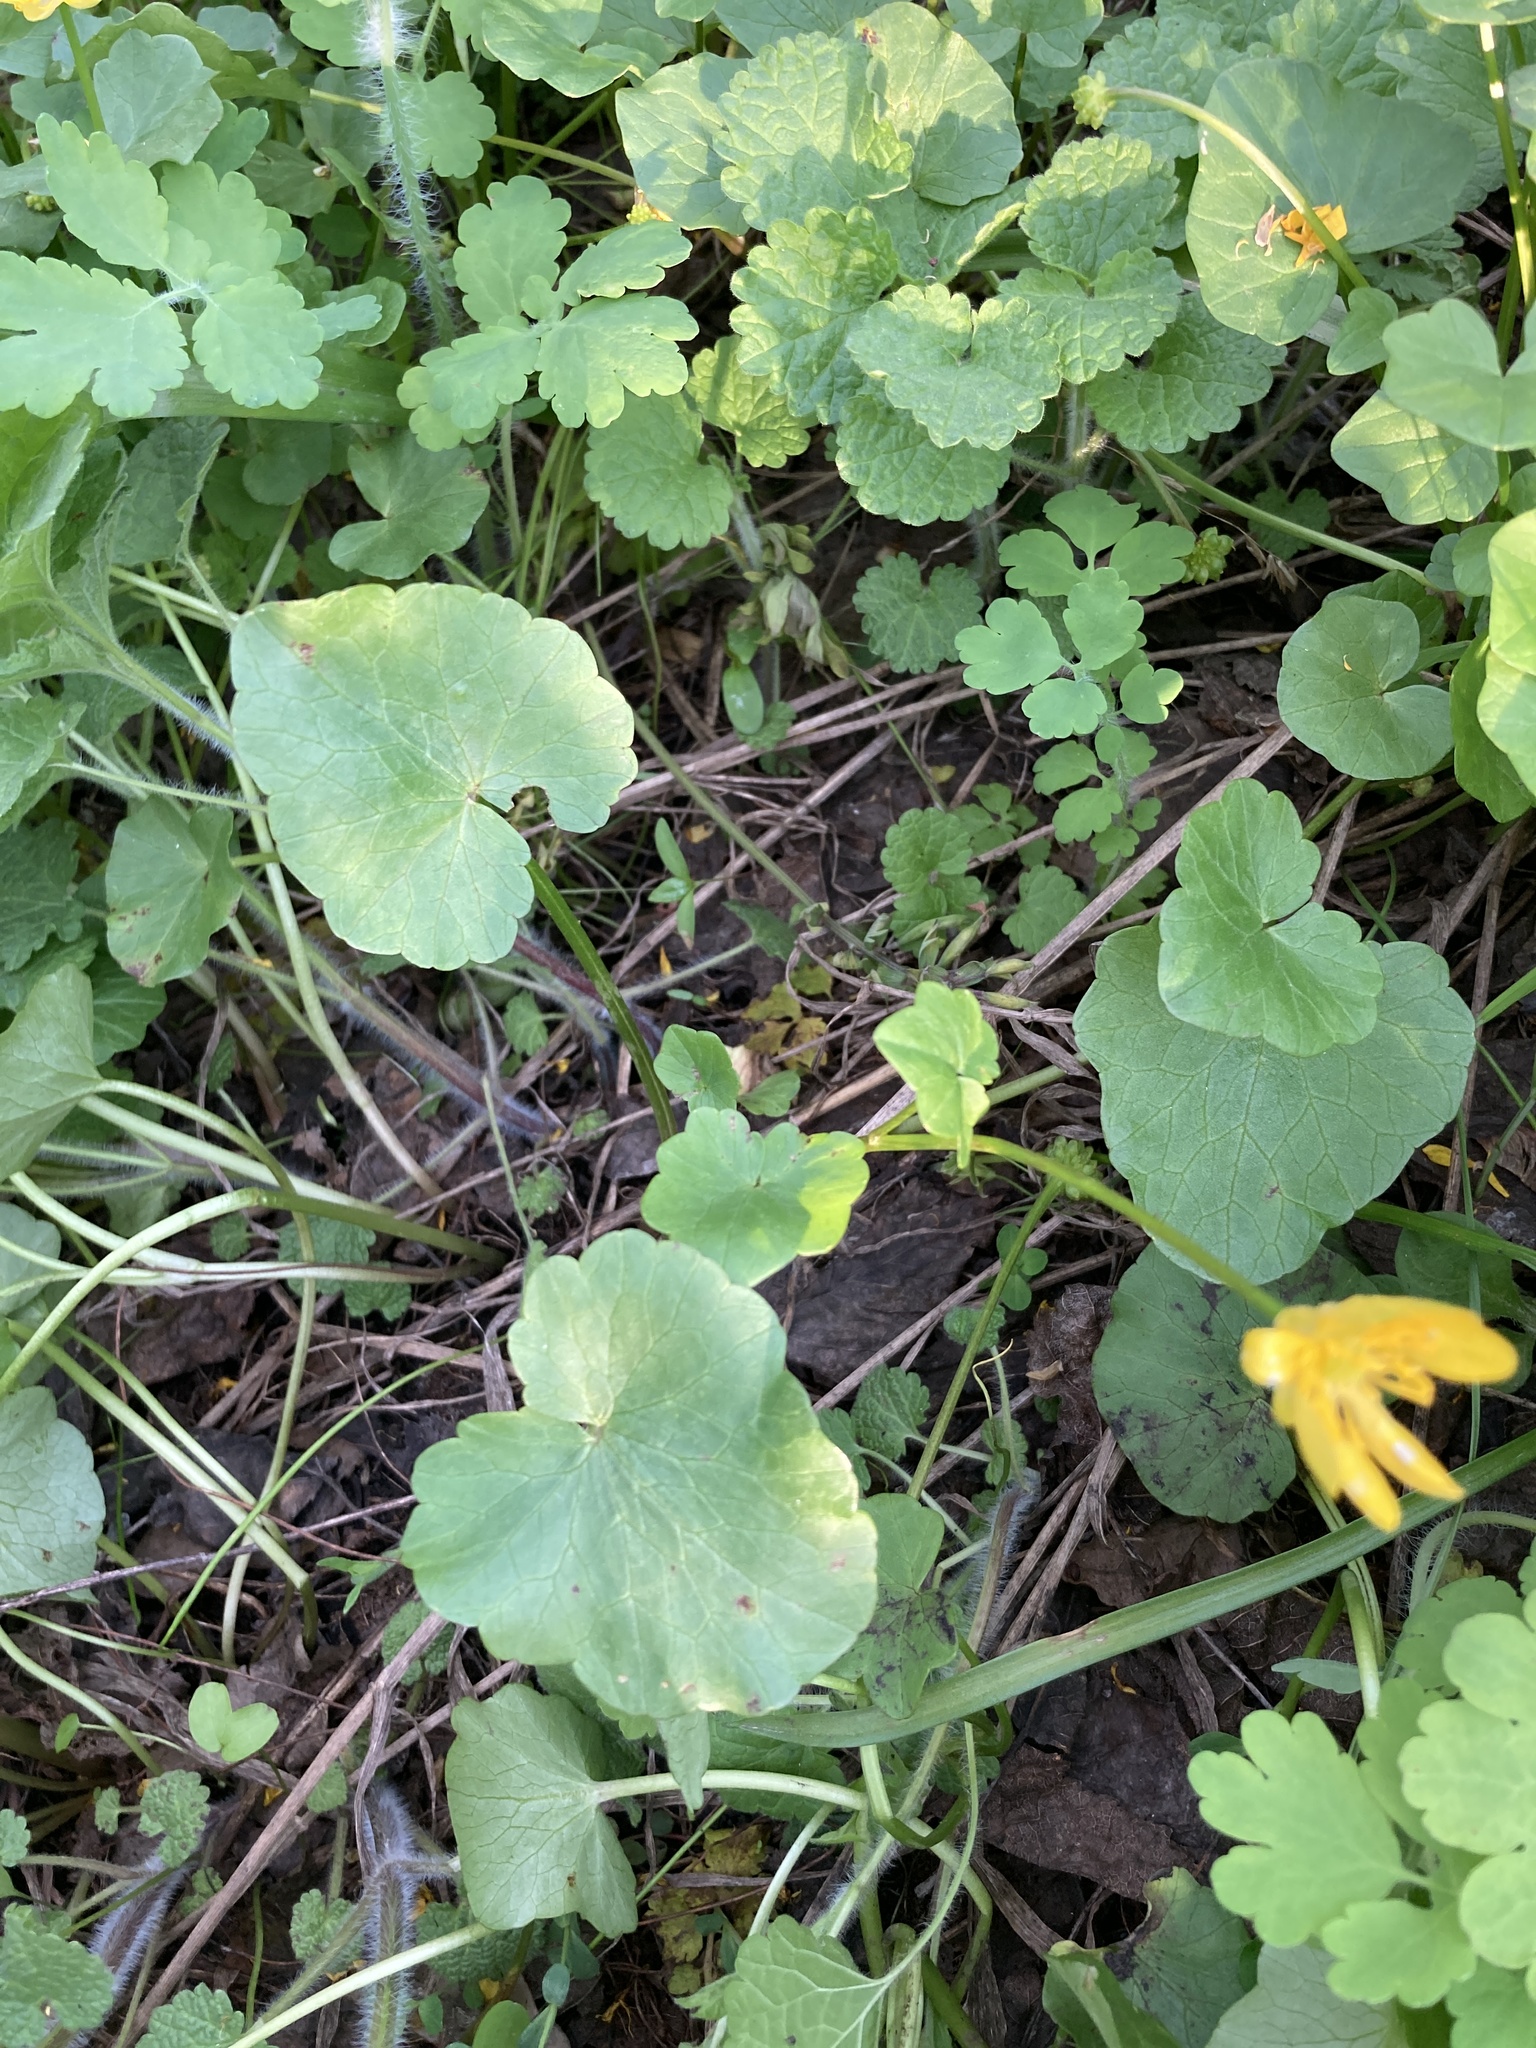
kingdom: Plantae
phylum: Tracheophyta
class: Magnoliopsida
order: Ranunculales
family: Ranunculaceae
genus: Ficaria
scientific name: Ficaria verna
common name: Lesser celandine
